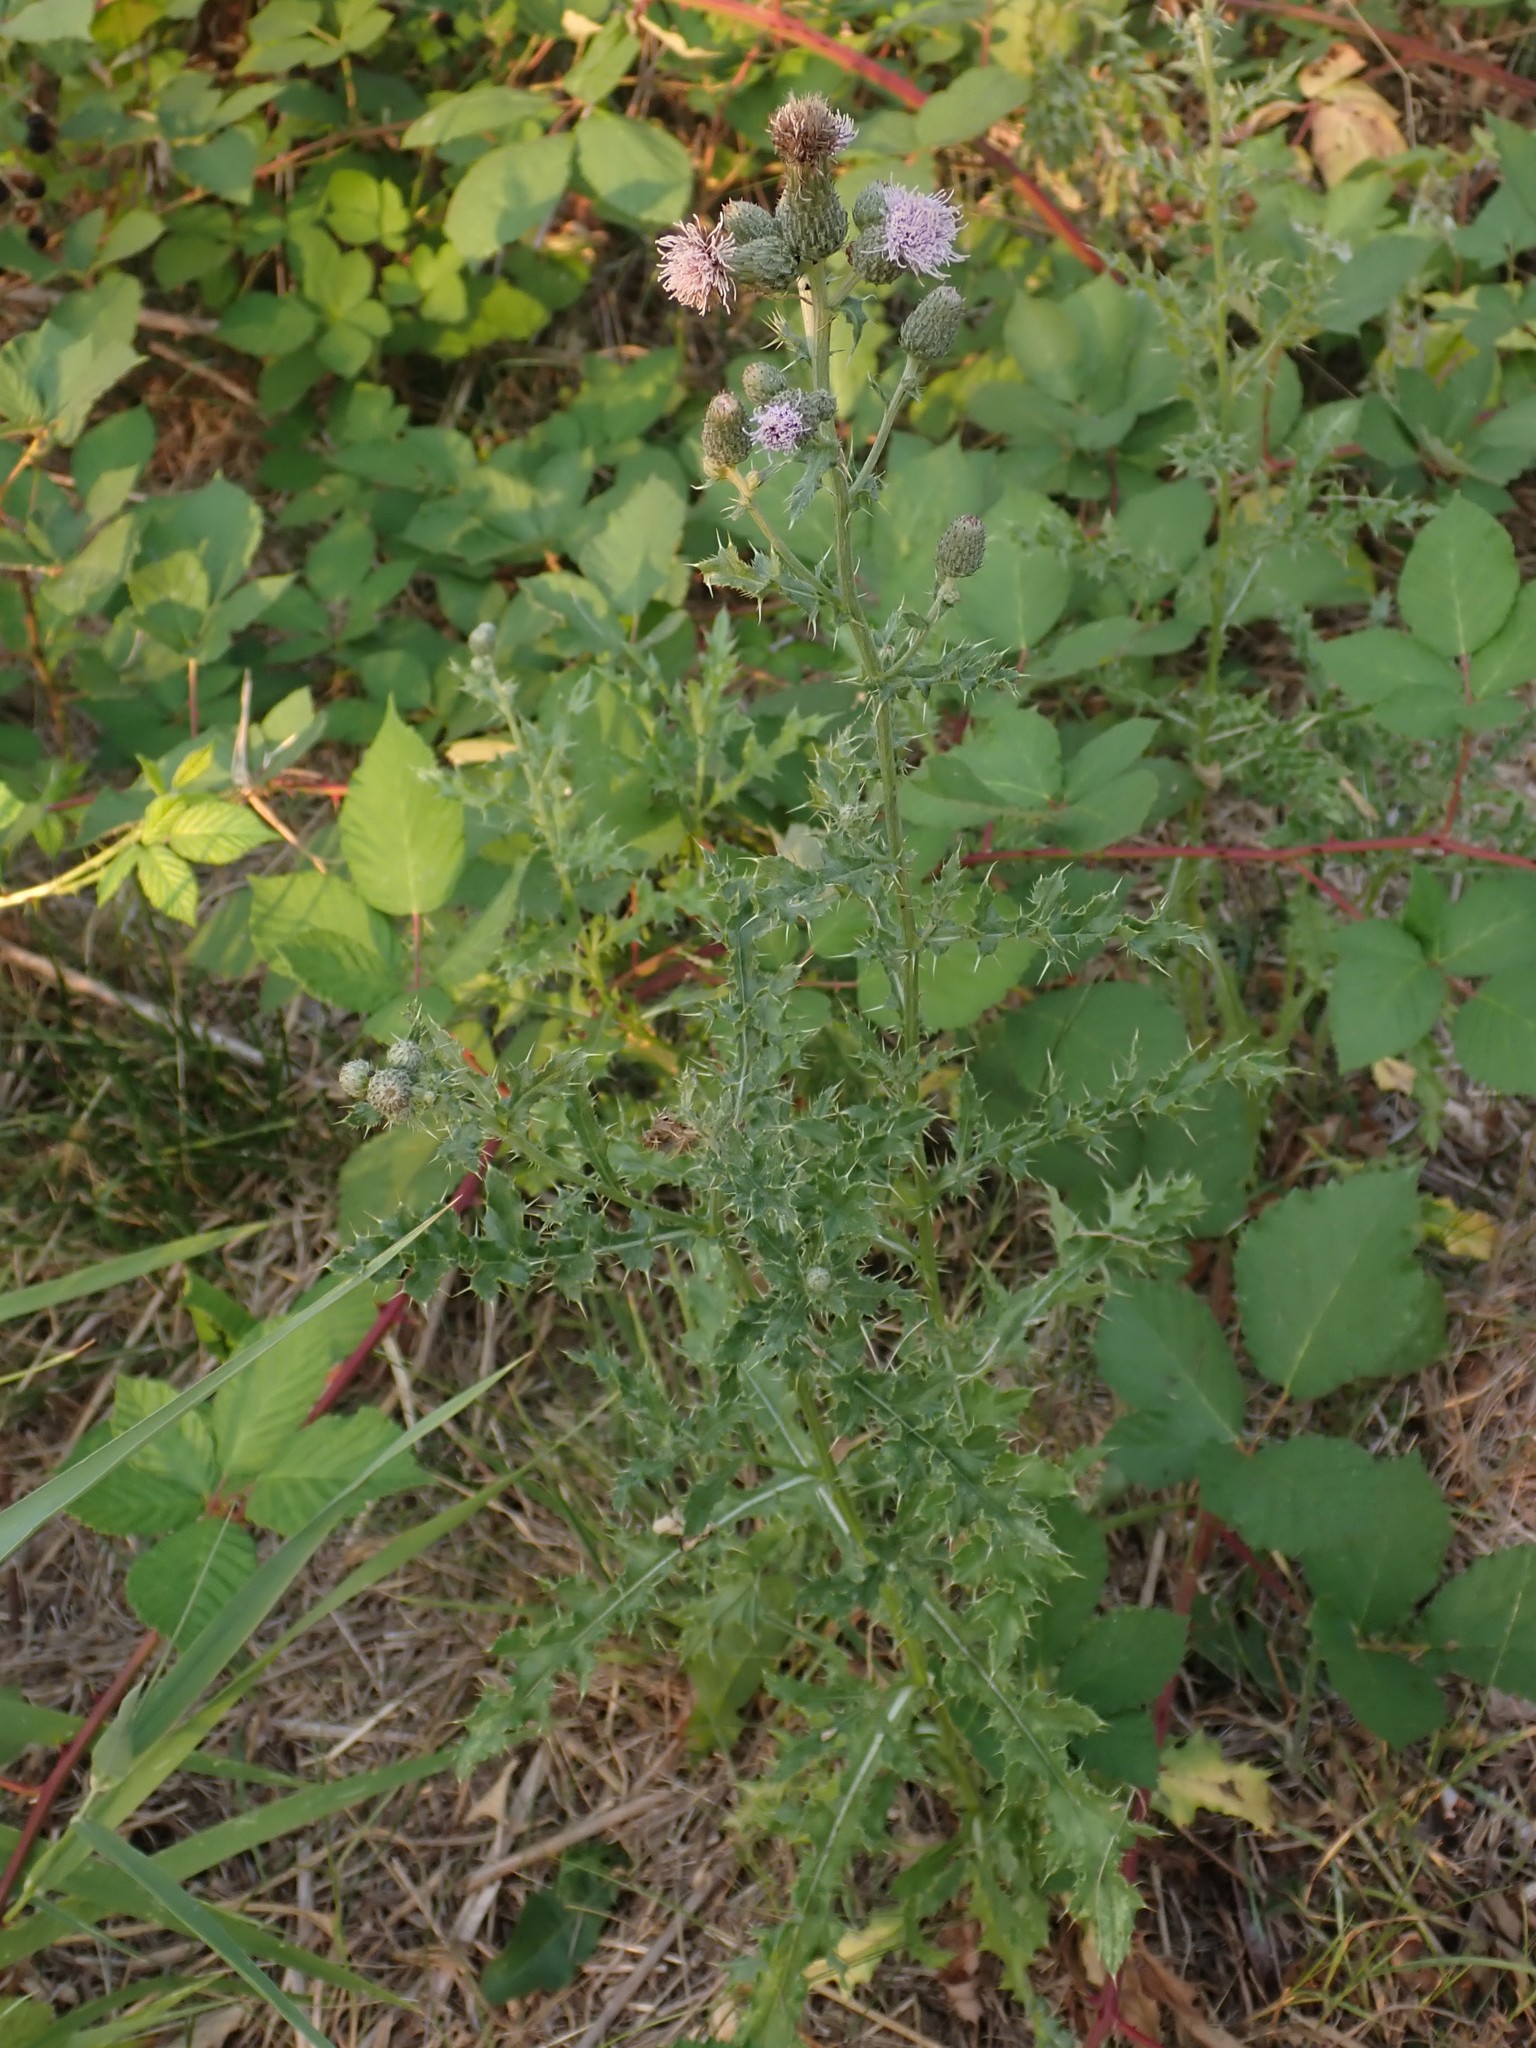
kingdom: Plantae
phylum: Tracheophyta
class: Magnoliopsida
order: Asterales
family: Asteraceae
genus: Cirsium
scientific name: Cirsium arvense
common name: Creeping thistle
